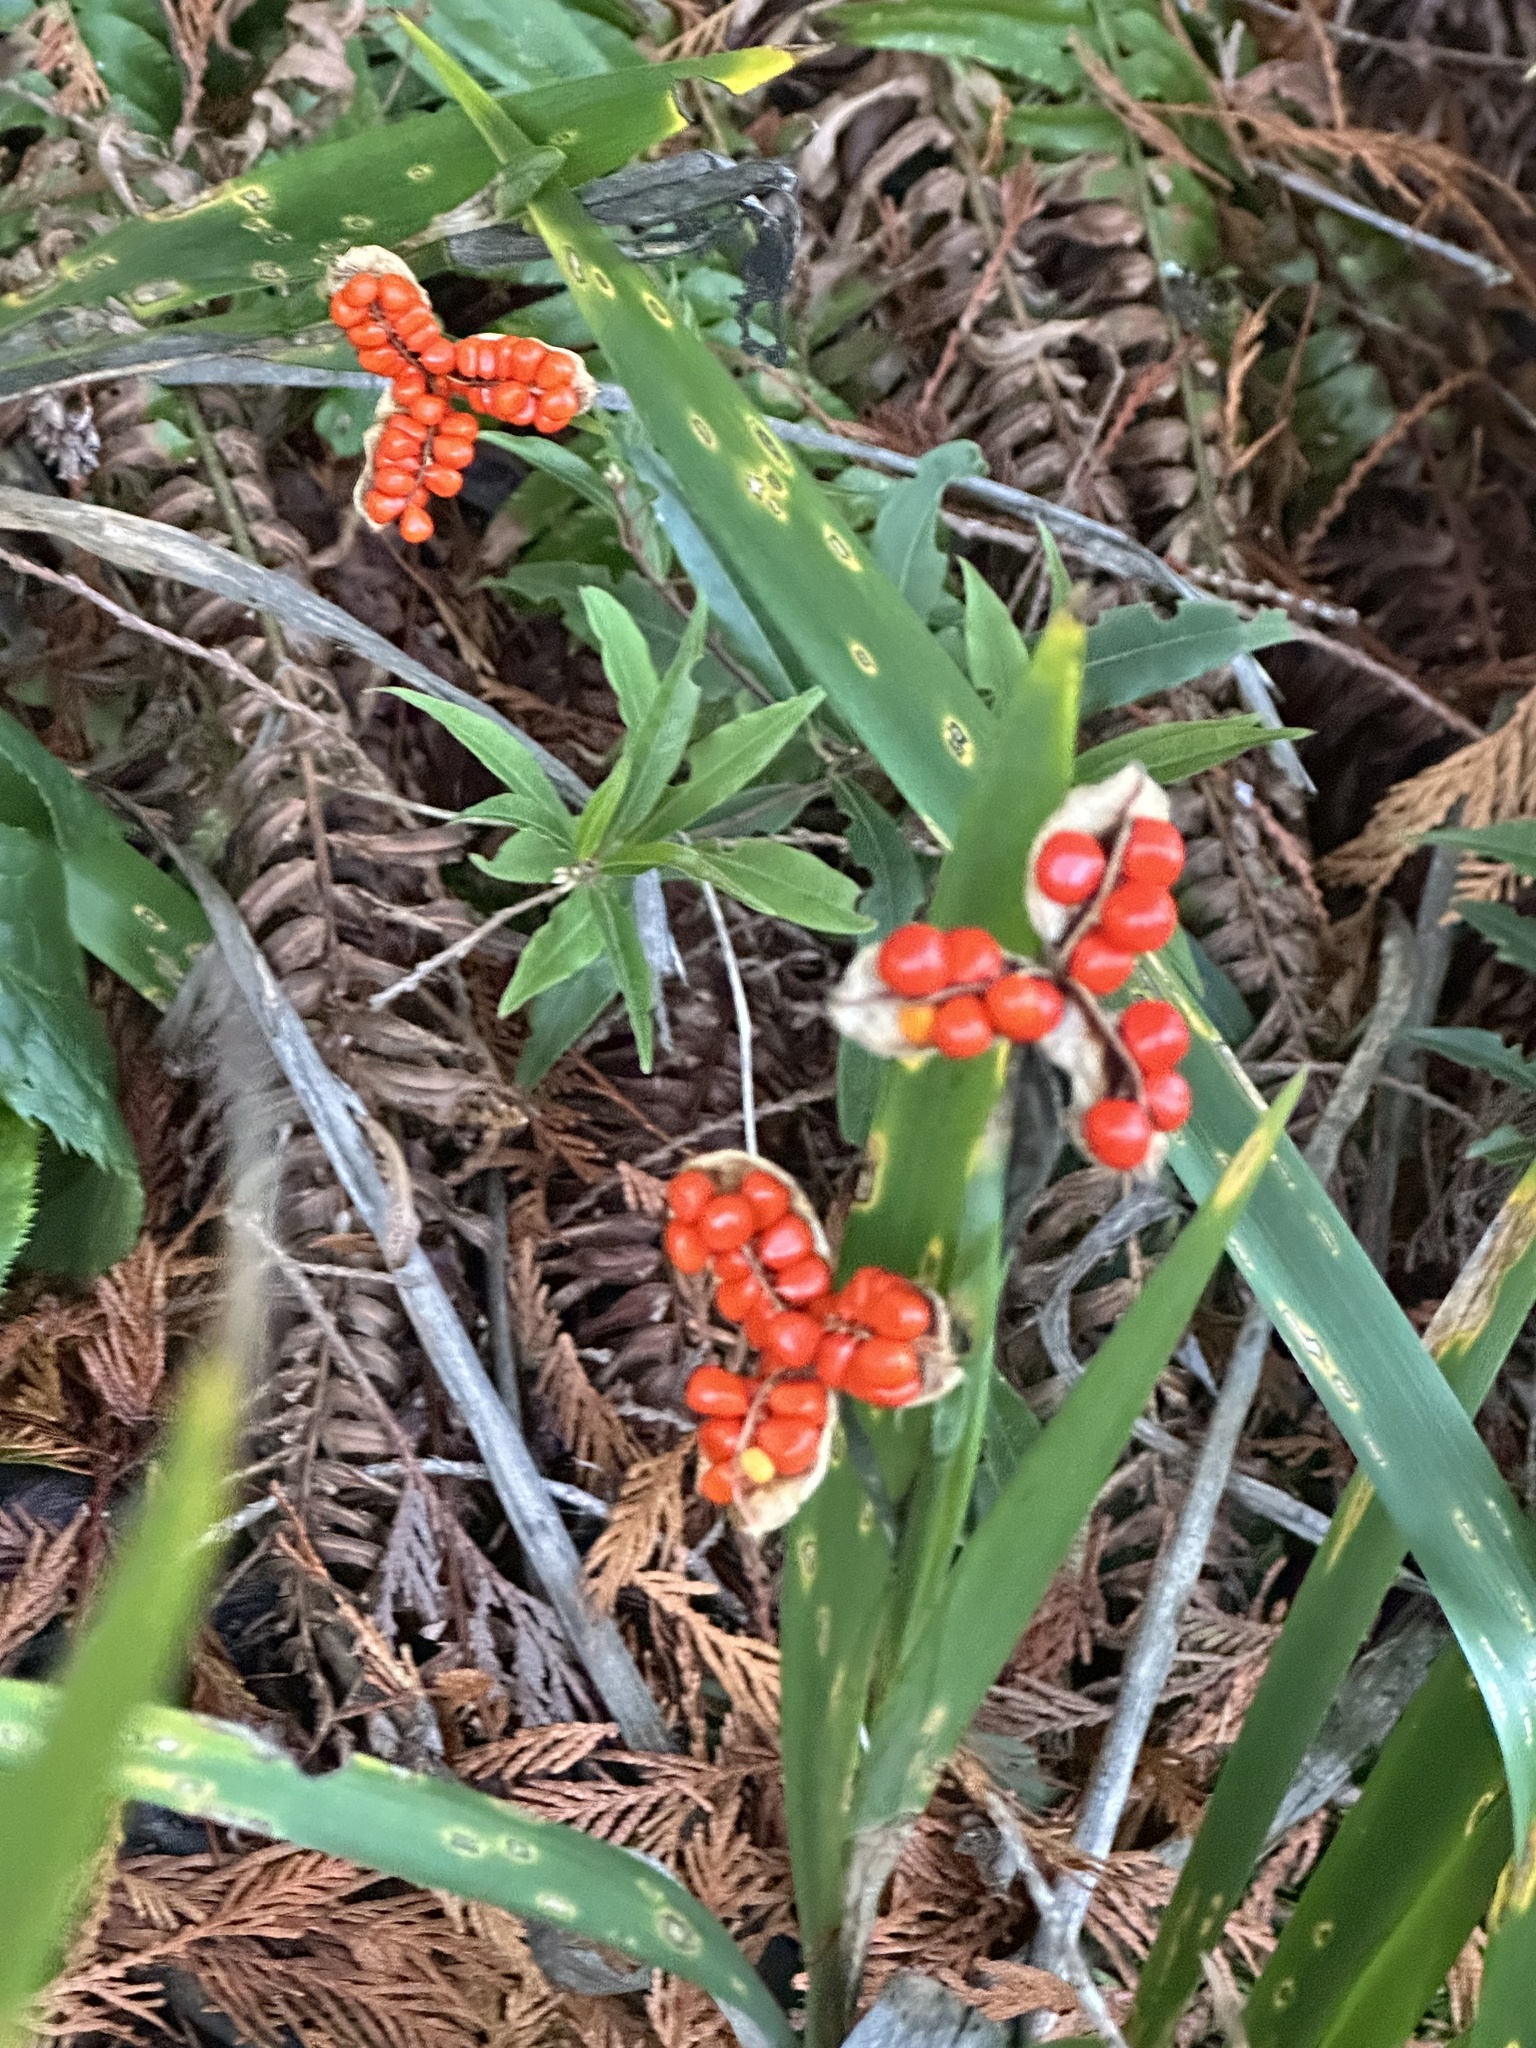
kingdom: Plantae
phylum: Tracheophyta
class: Liliopsida
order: Asparagales
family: Iridaceae
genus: Iris
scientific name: Iris foetidissima
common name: Stinking iris
